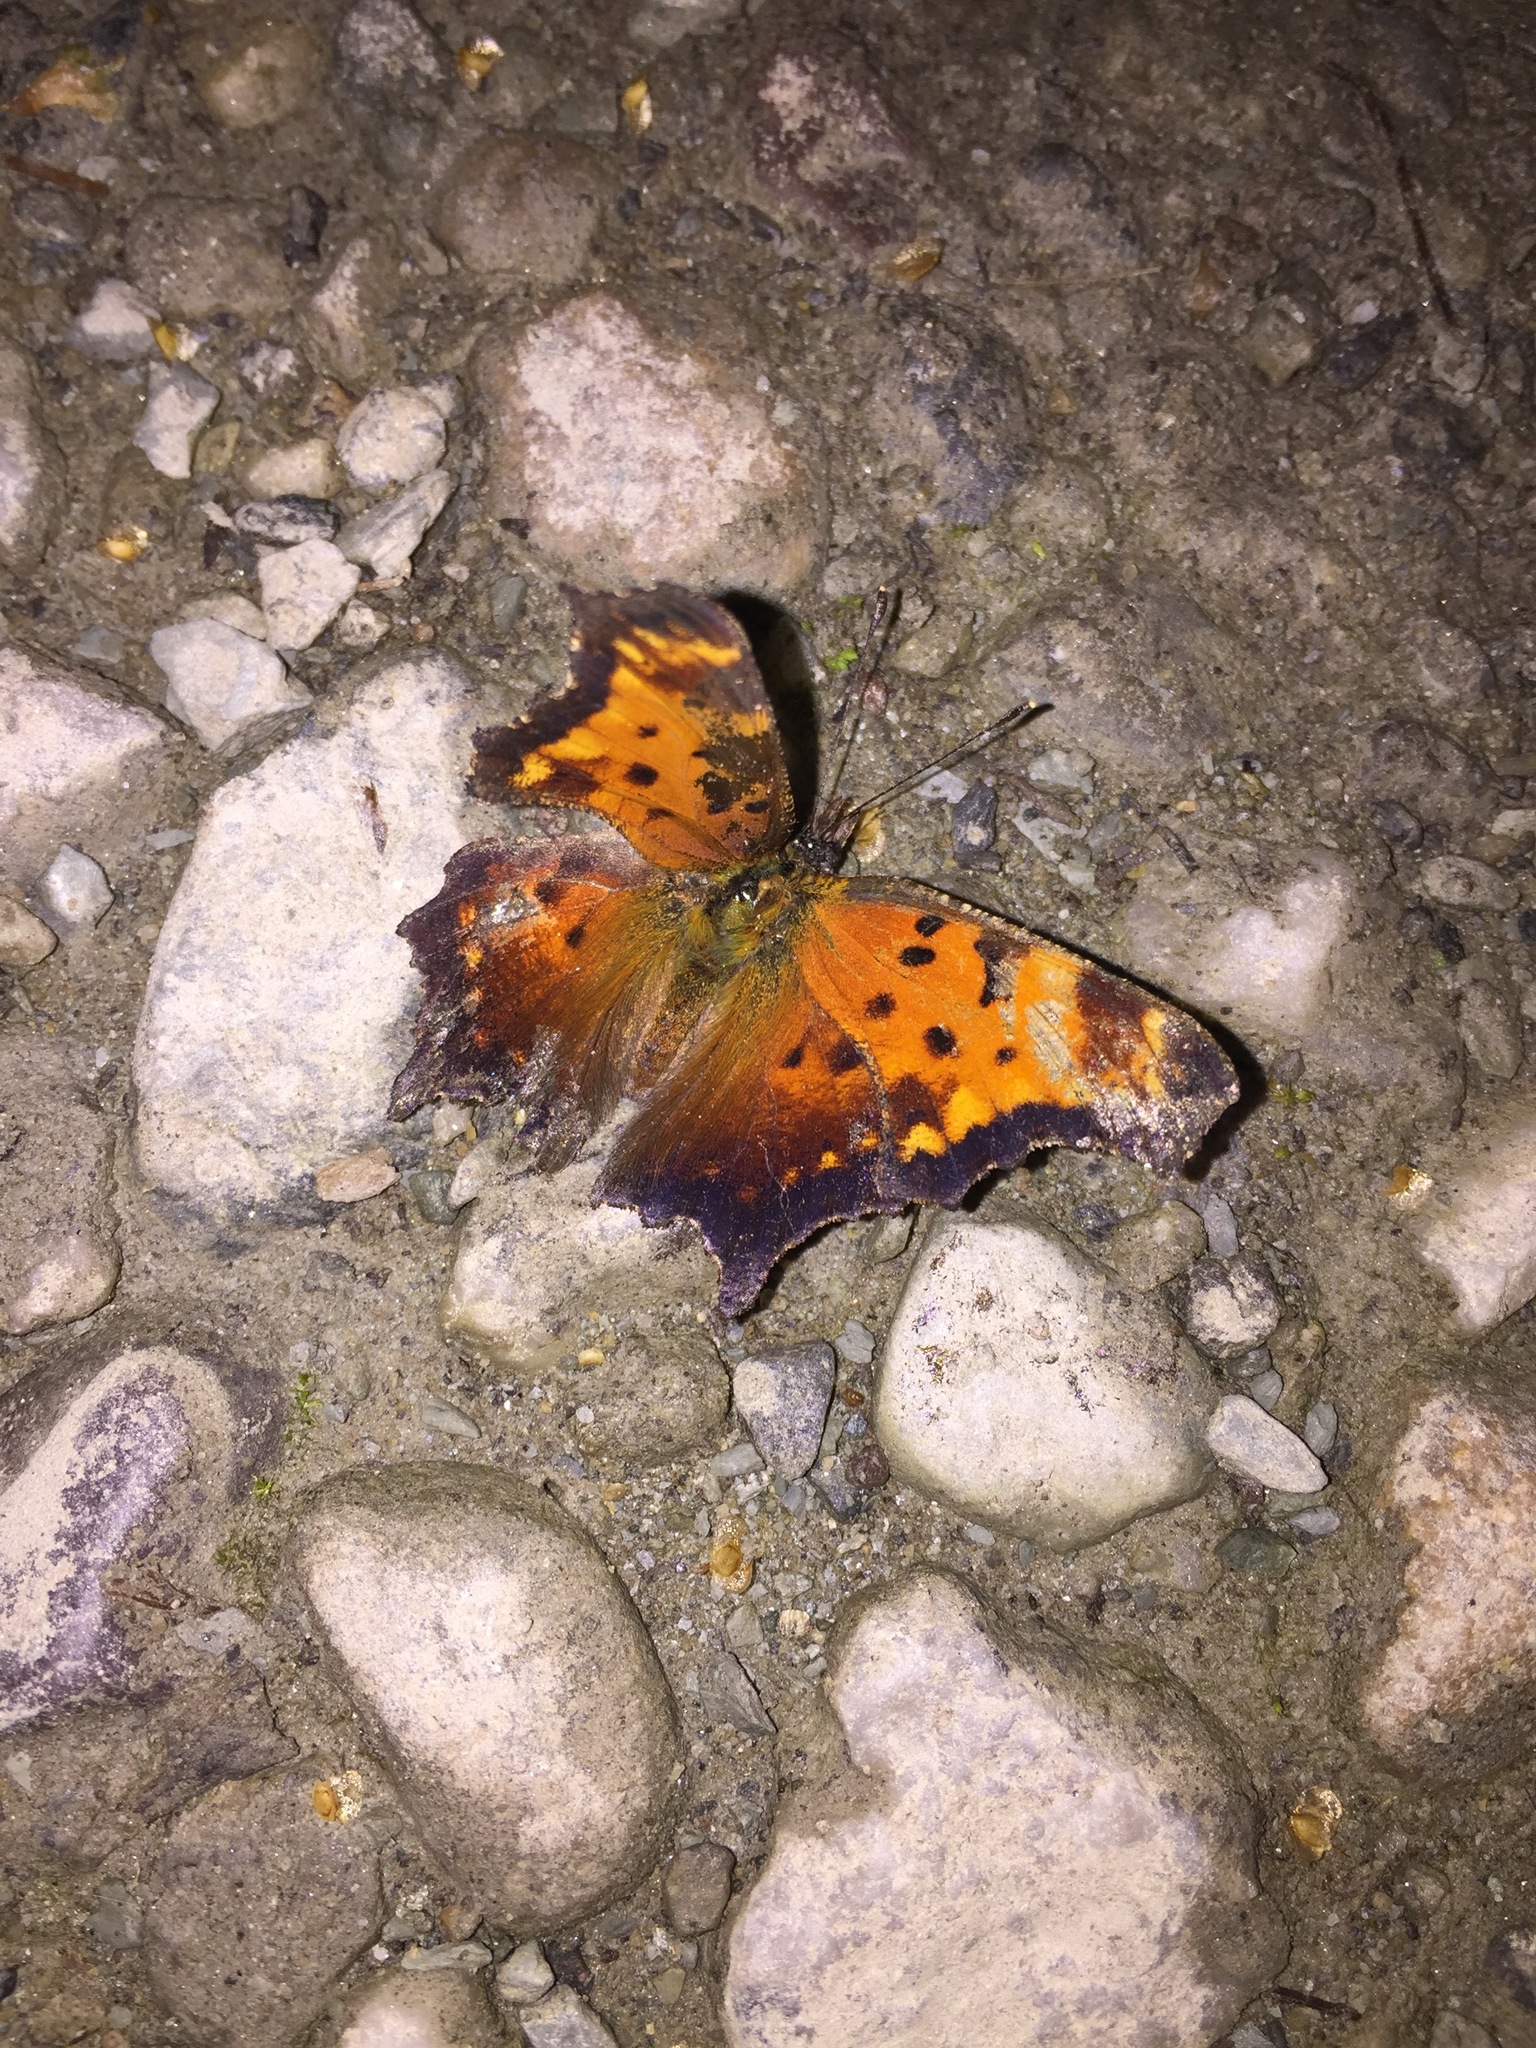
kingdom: Animalia
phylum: Arthropoda
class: Insecta
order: Lepidoptera
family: Nymphalidae
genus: Polygonia
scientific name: Polygonia progne
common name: Gray comma
